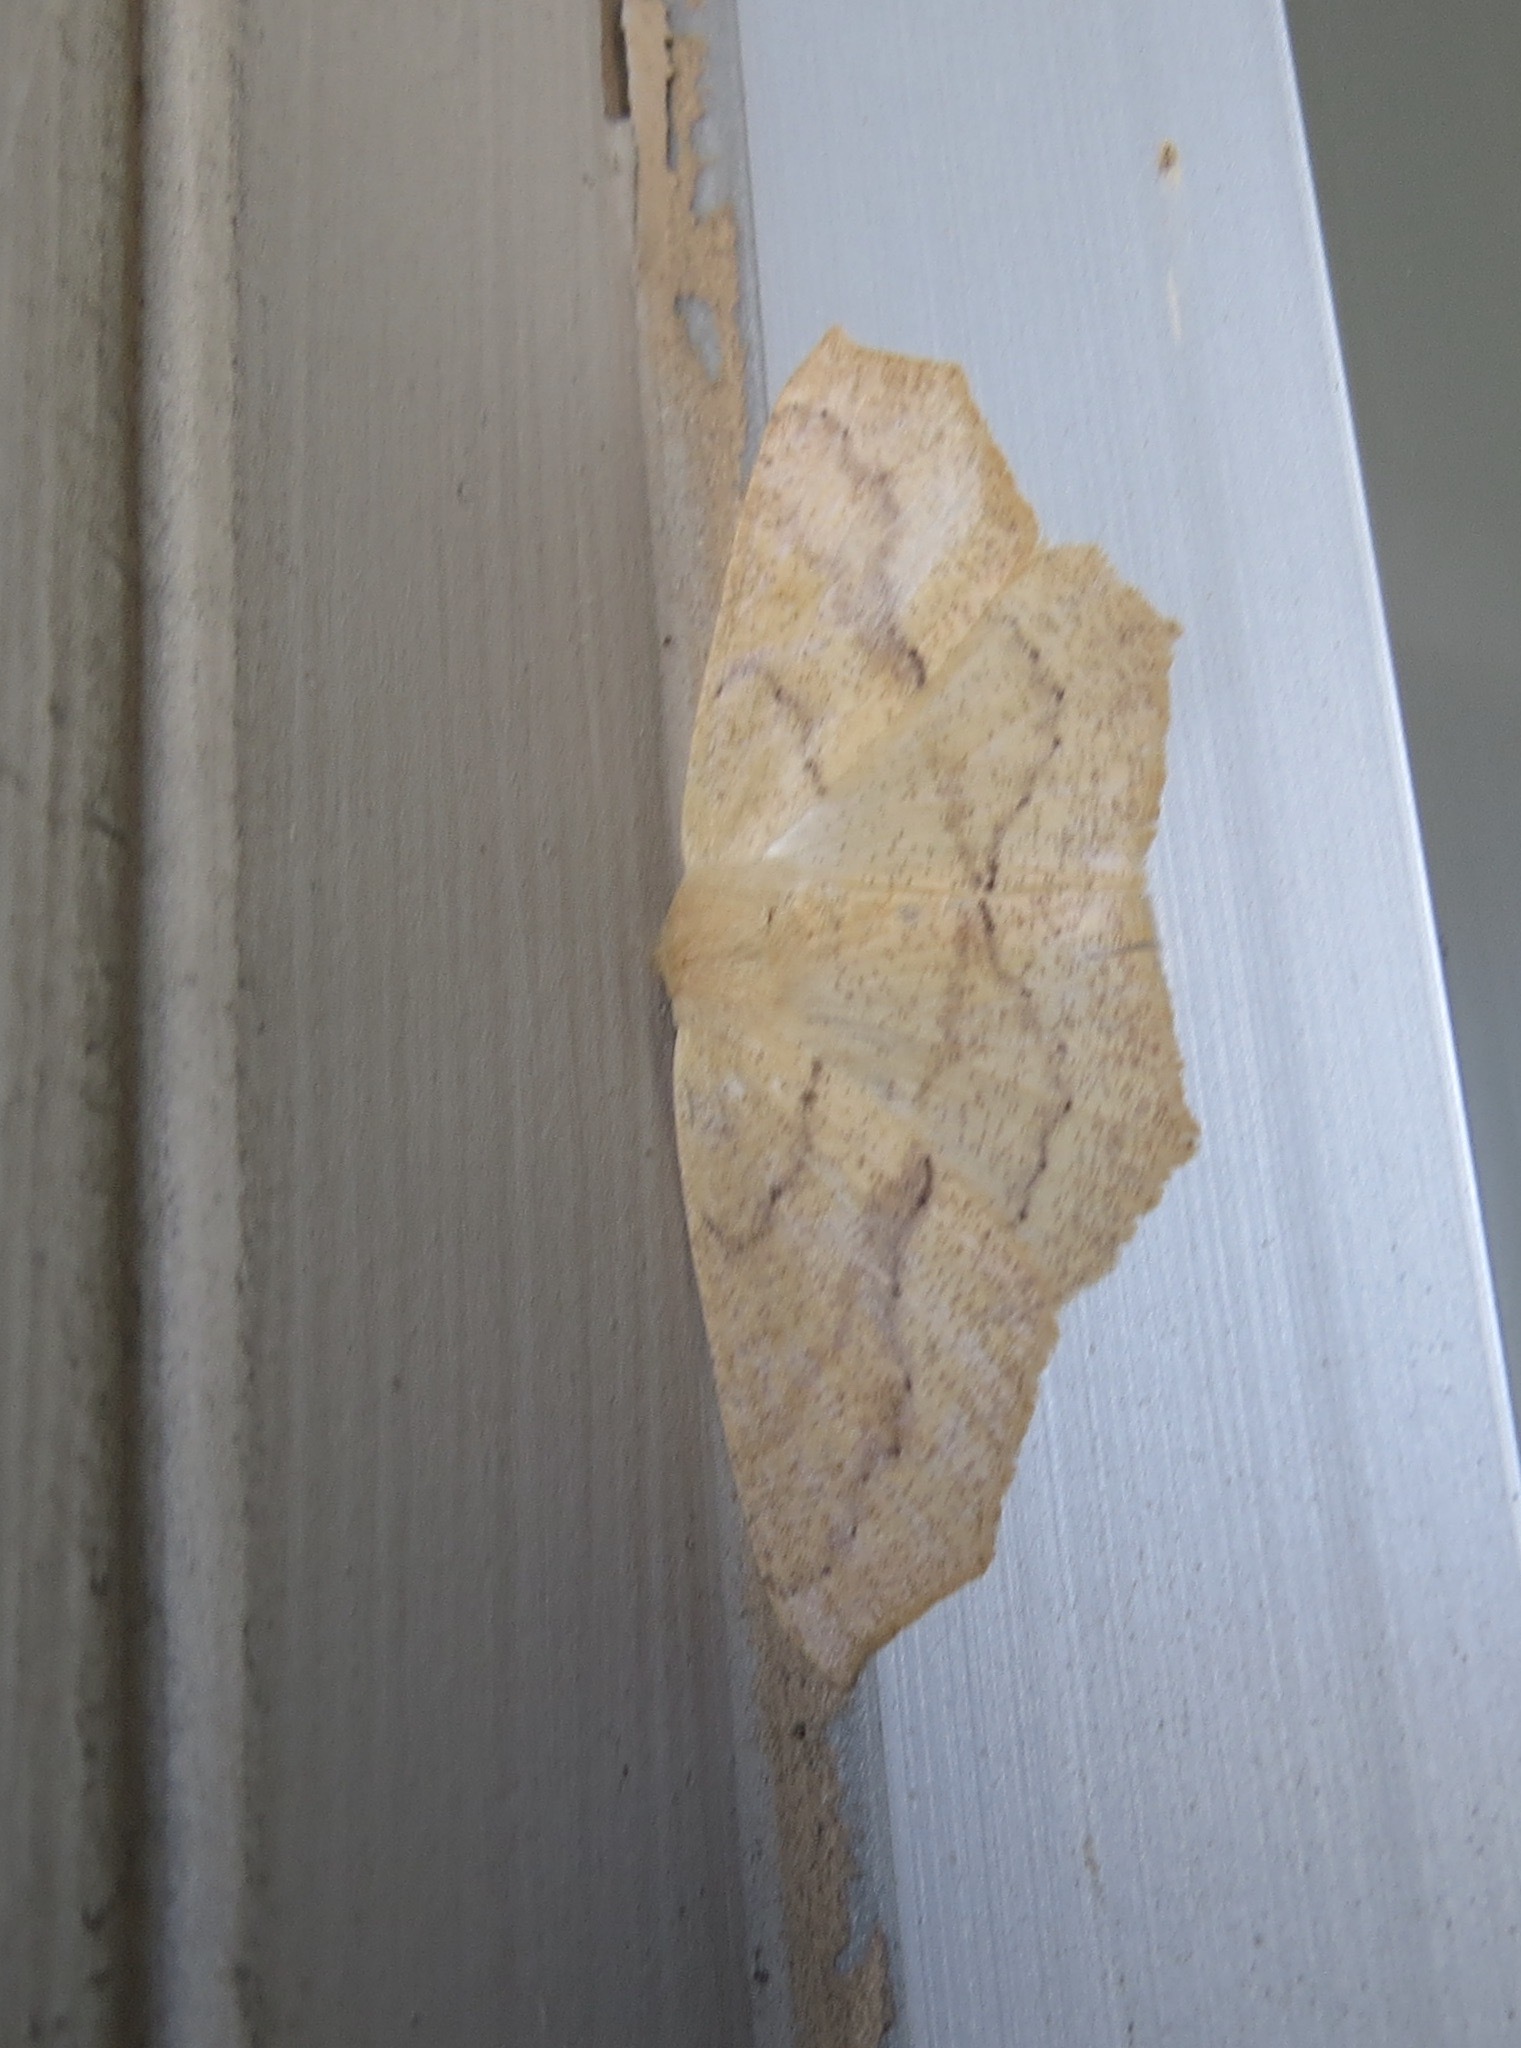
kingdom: Animalia
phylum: Arthropoda
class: Insecta
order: Lepidoptera
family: Geometridae
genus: Sabulodes
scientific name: Sabulodes aegrotata
